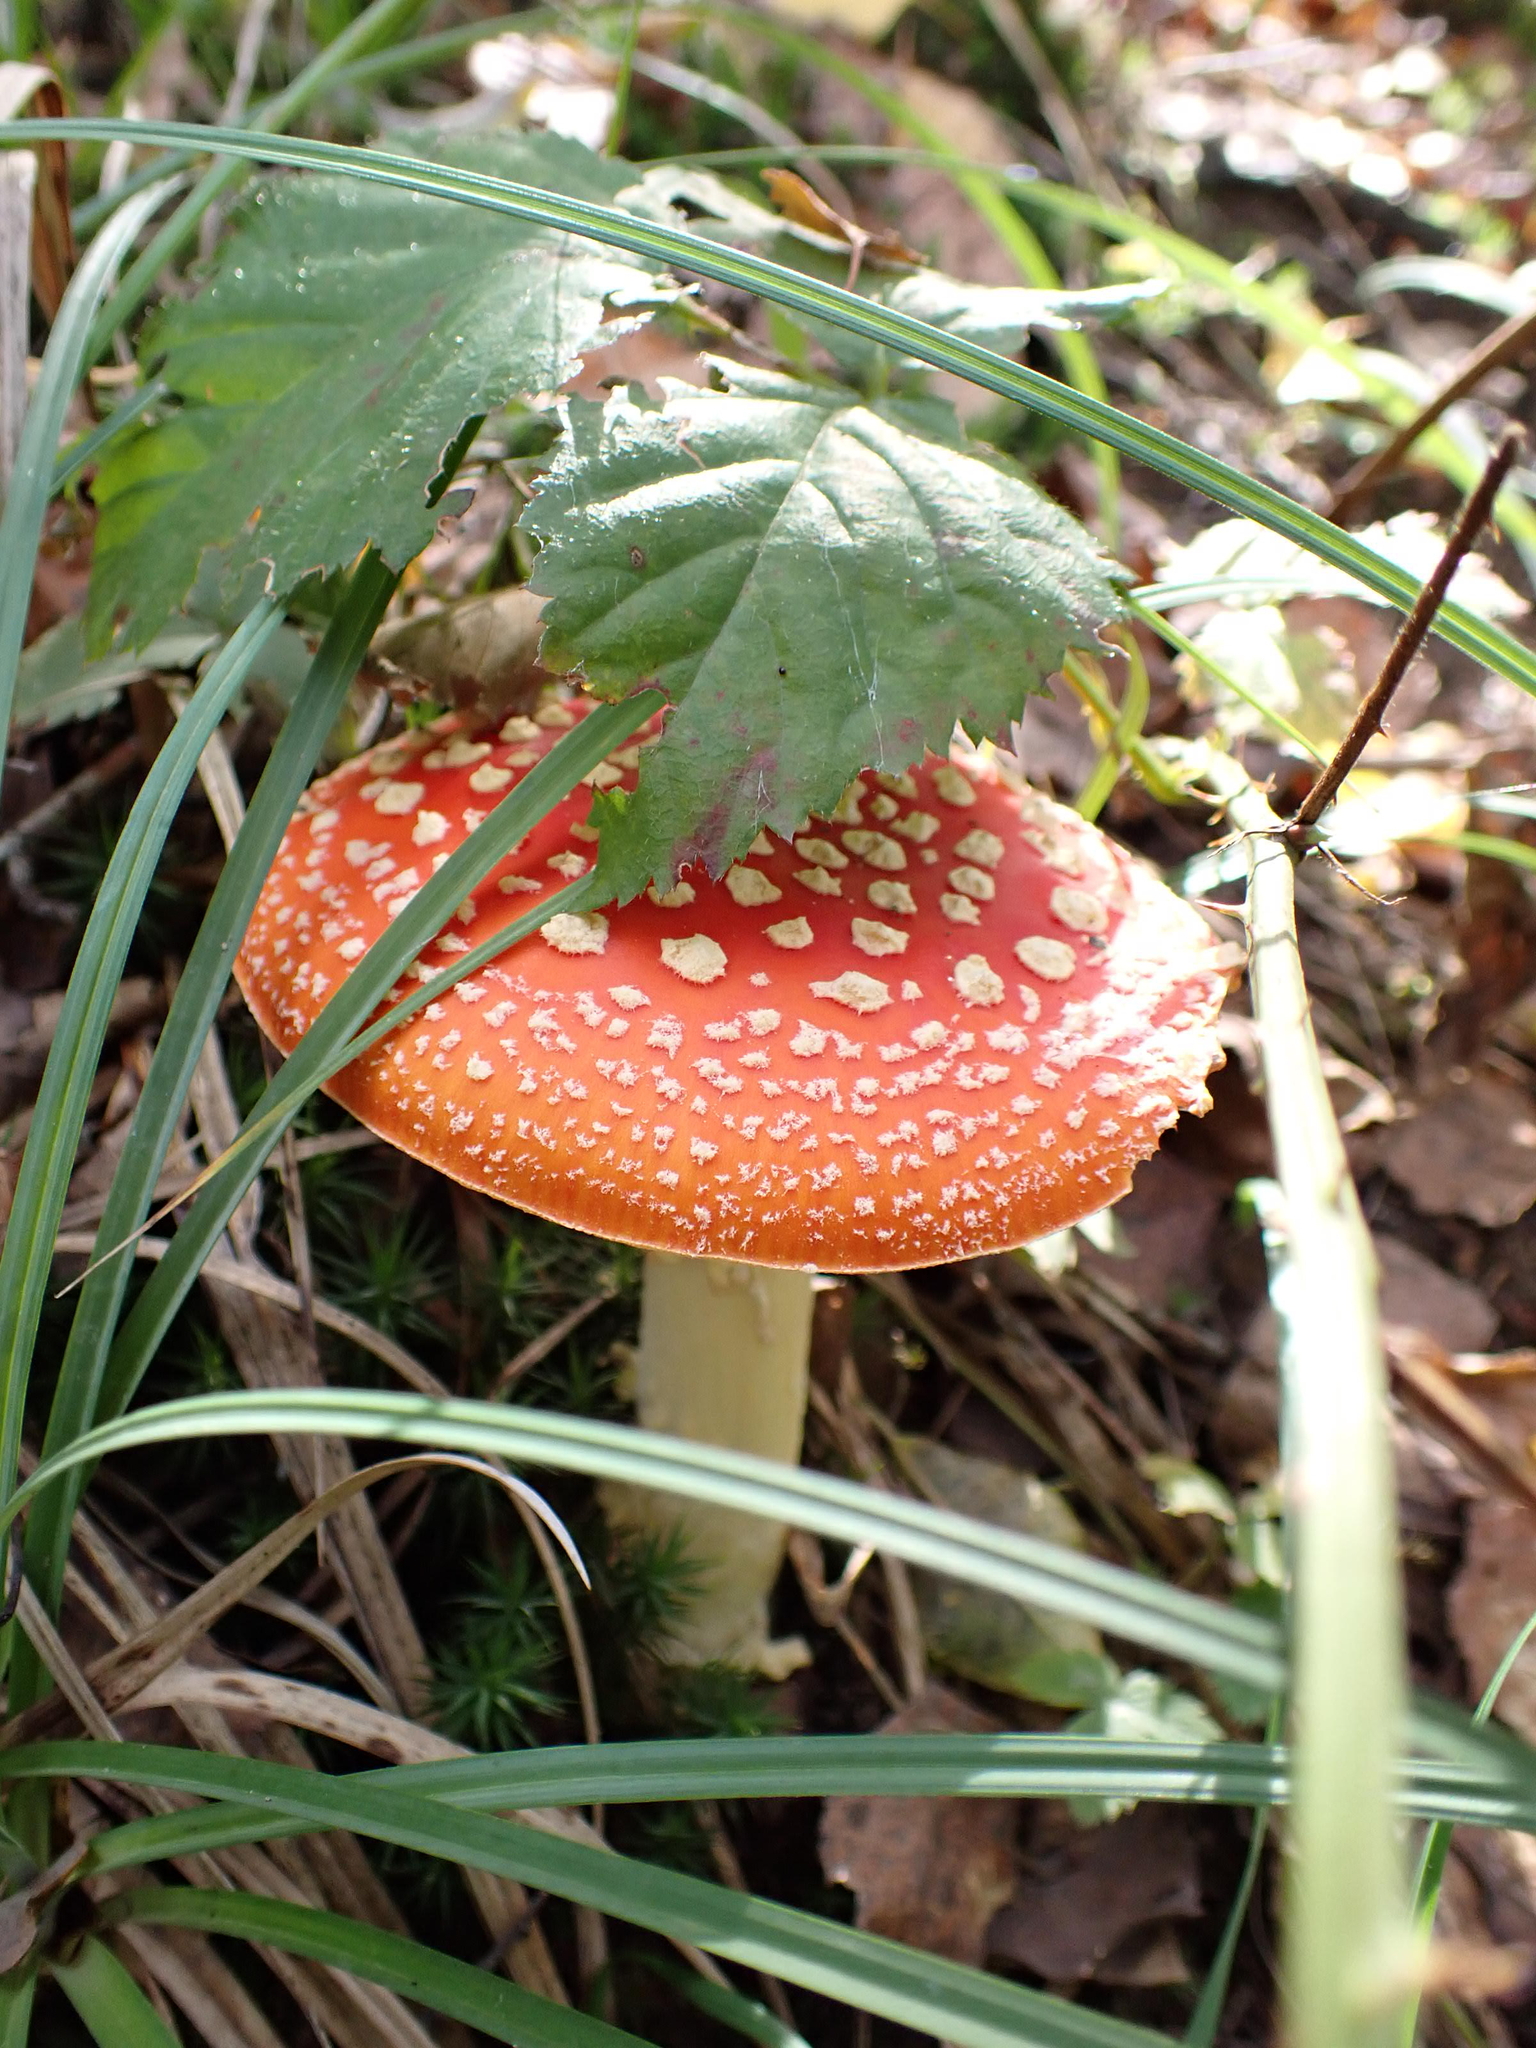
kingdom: Fungi
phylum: Basidiomycota
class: Agaricomycetes
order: Agaricales
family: Amanitaceae
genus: Amanita
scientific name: Amanita muscaria
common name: Fly agaric
